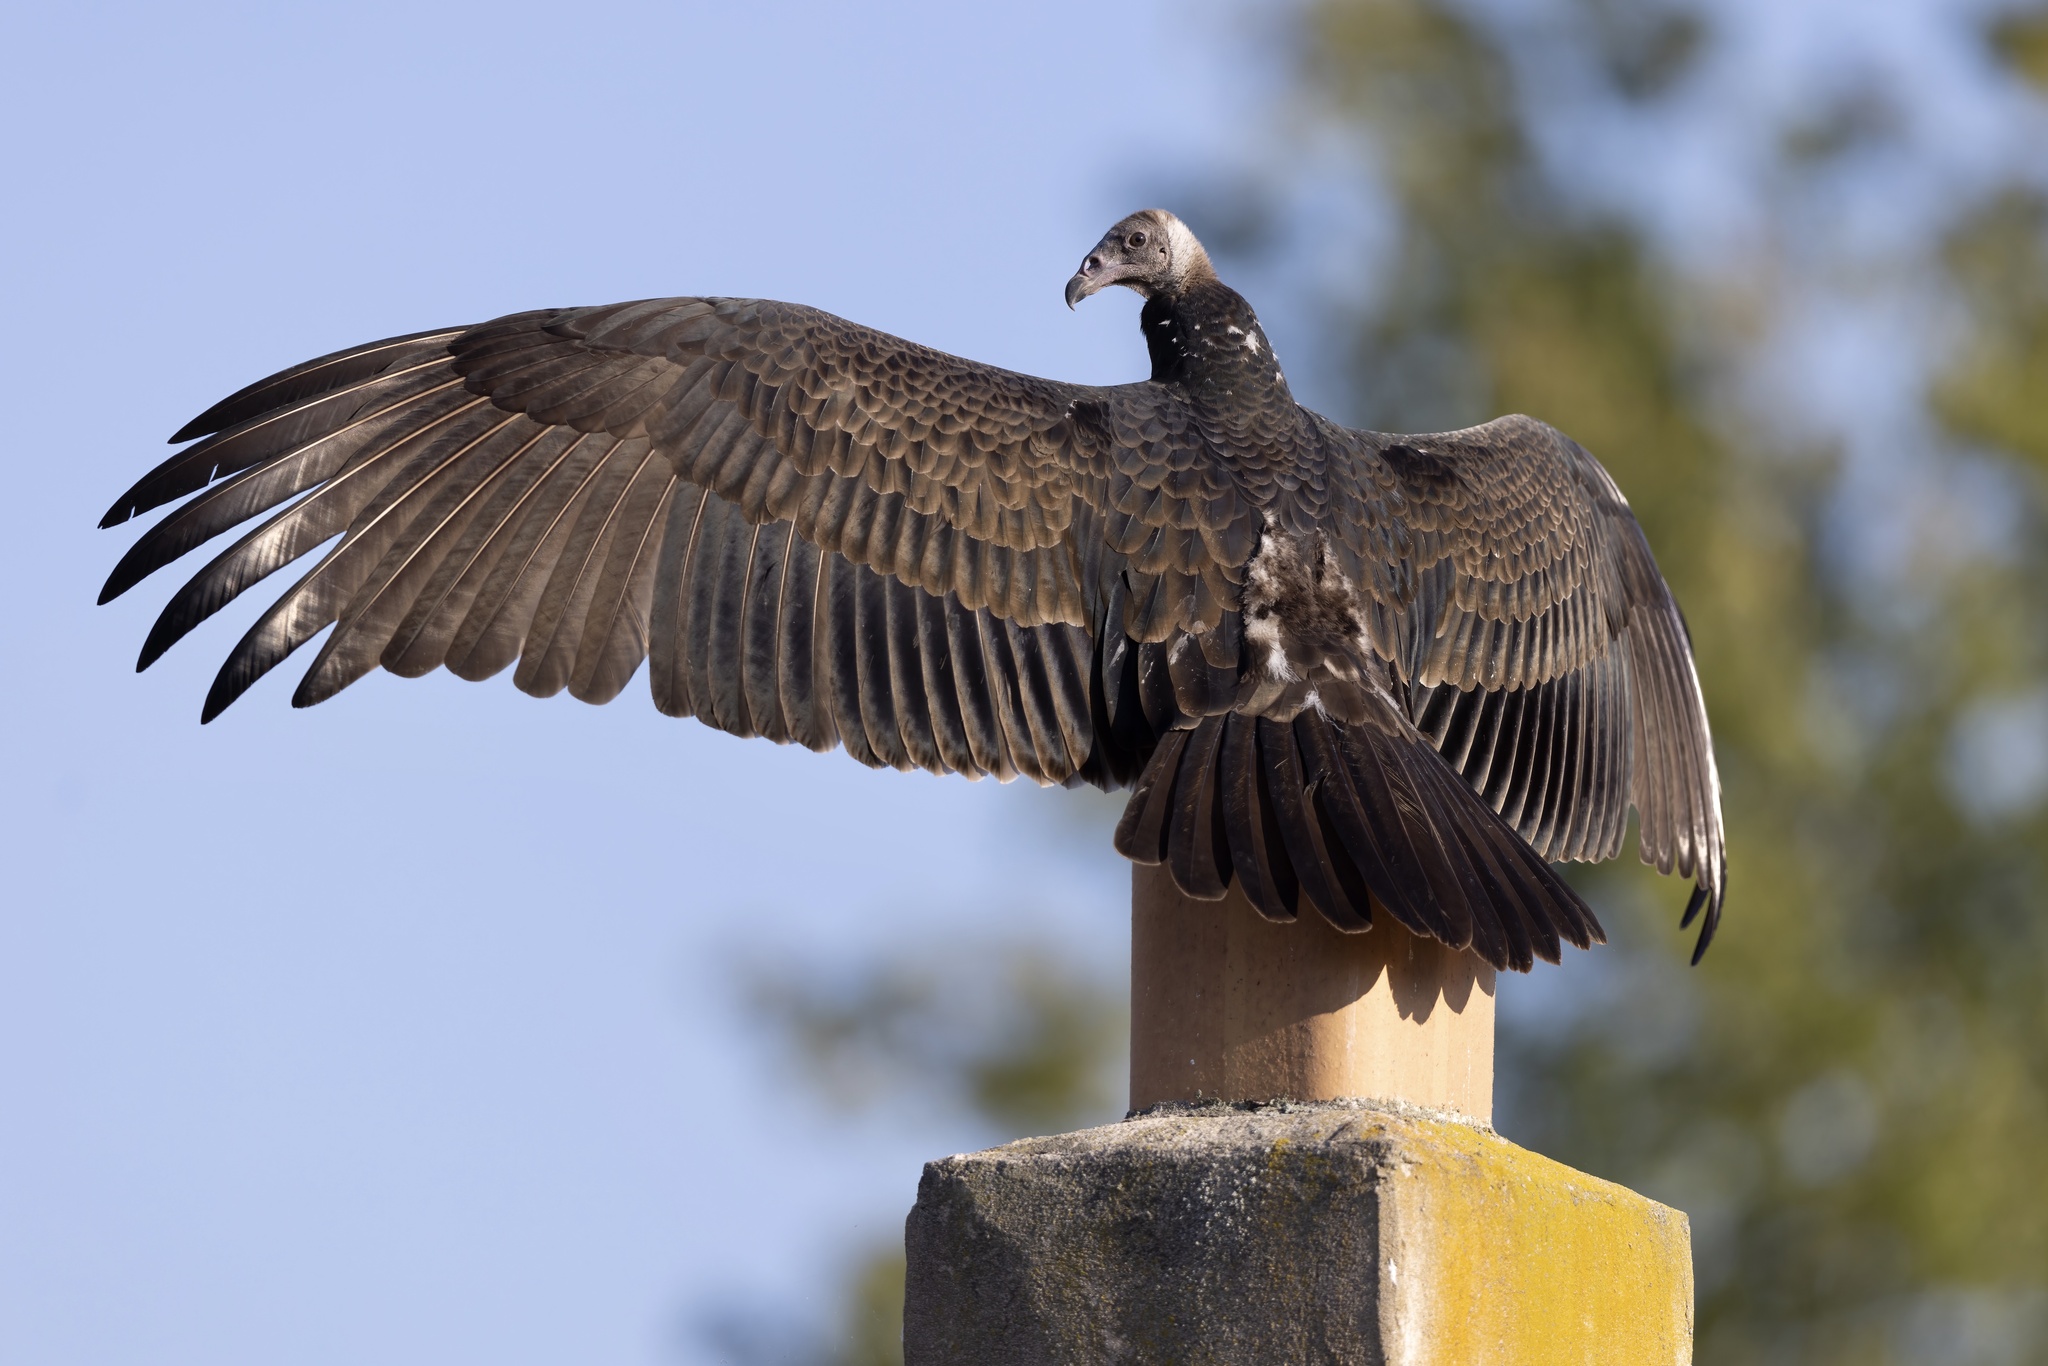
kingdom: Animalia
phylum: Chordata
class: Aves
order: Accipitriformes
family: Cathartidae
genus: Cathartes
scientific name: Cathartes aura
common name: Turkey vulture
